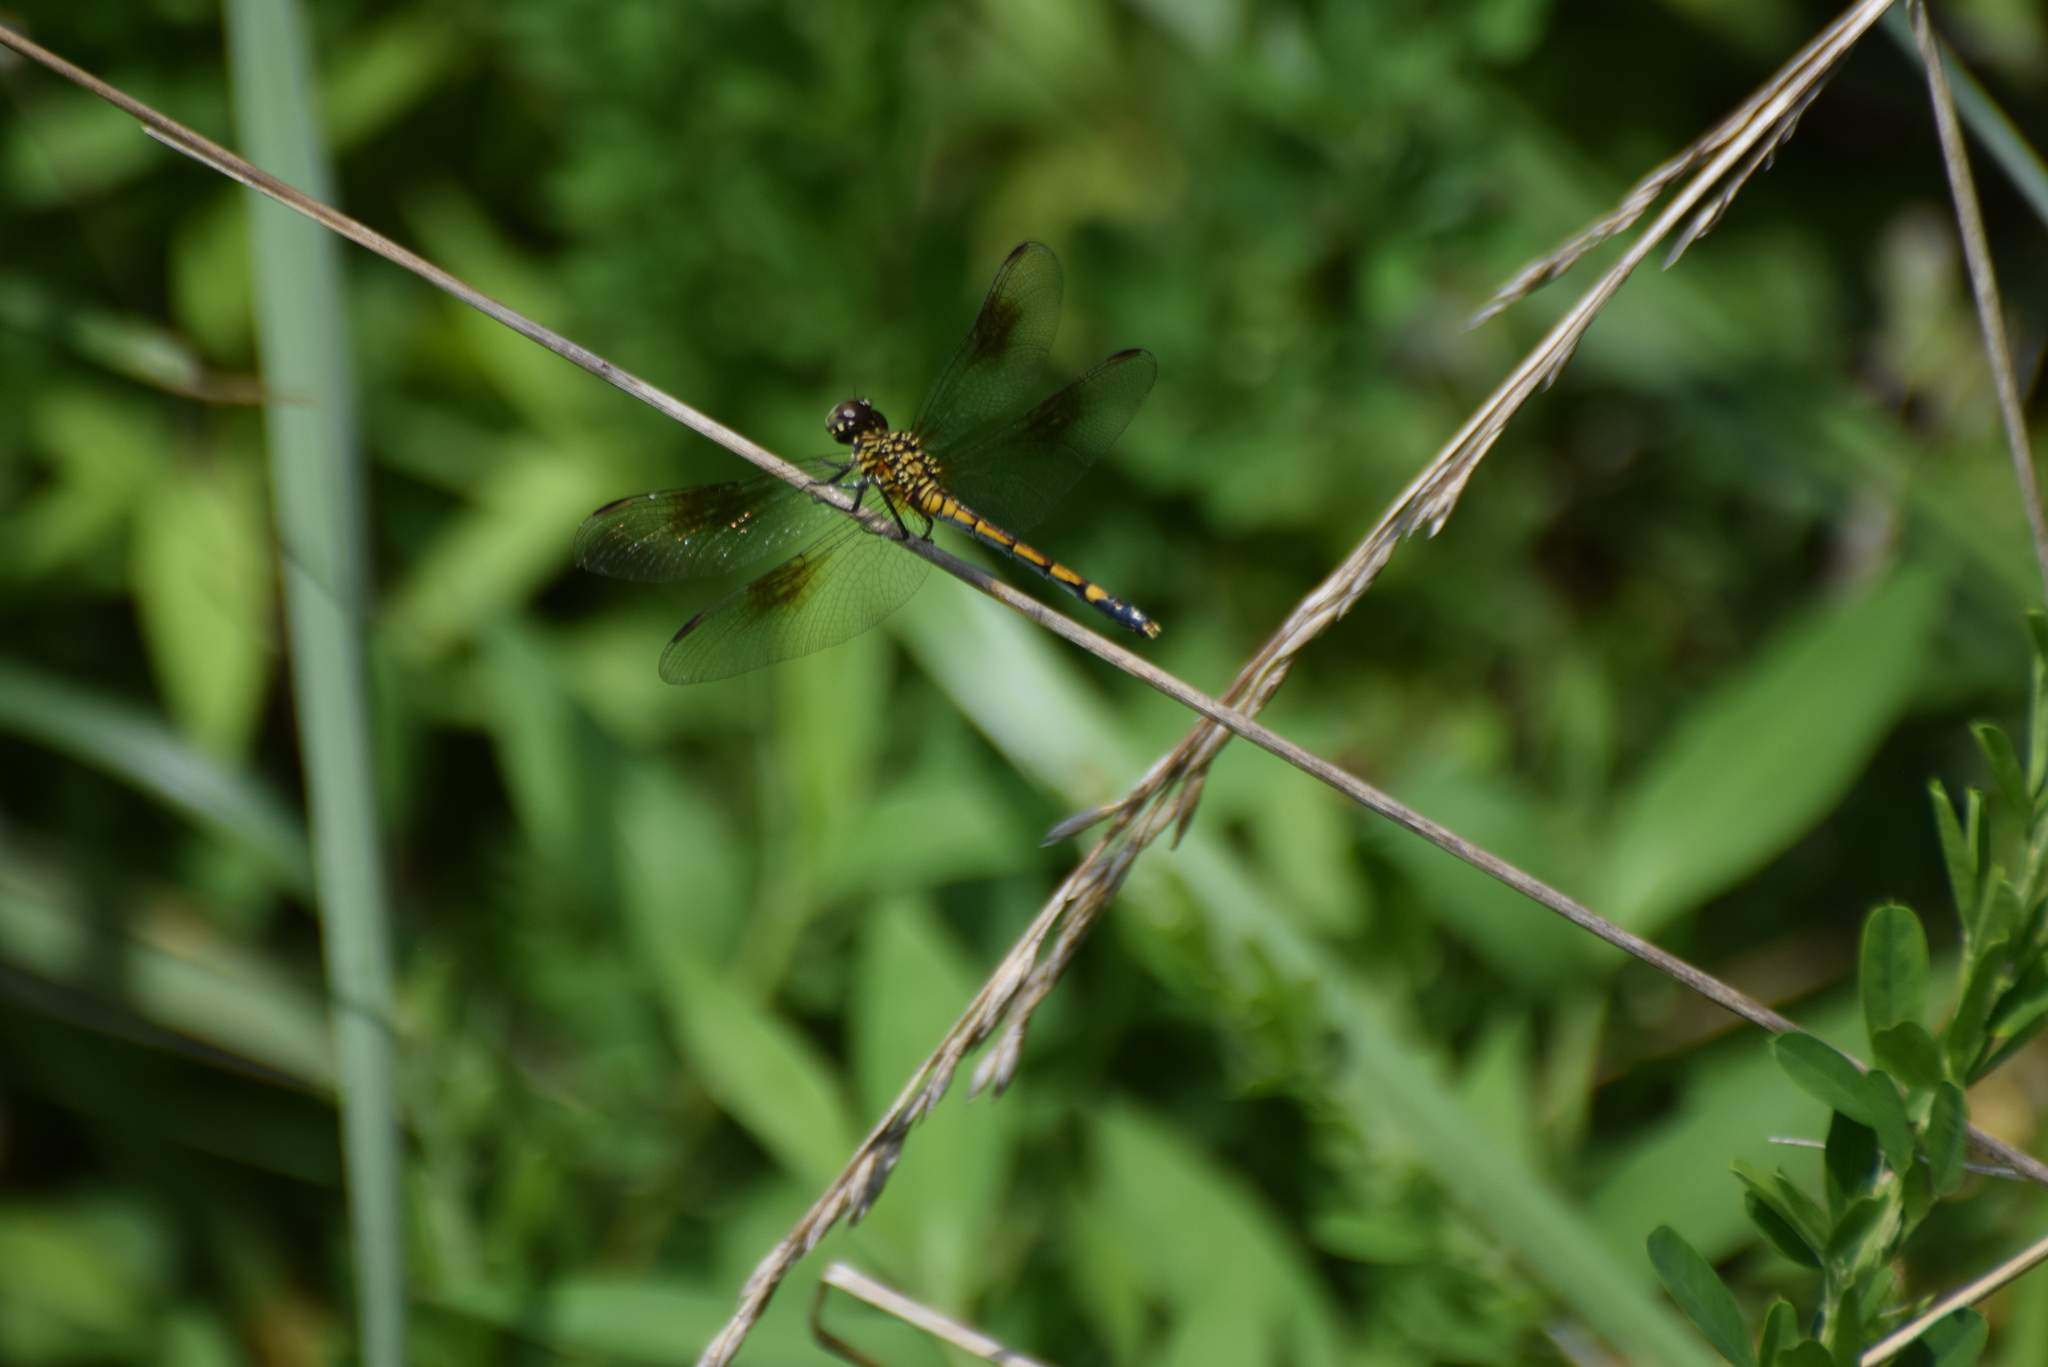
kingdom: Animalia
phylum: Arthropoda
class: Insecta
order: Odonata
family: Libellulidae
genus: Erythrodiplax
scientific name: Erythrodiplax berenice
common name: Seaside dragonlet
